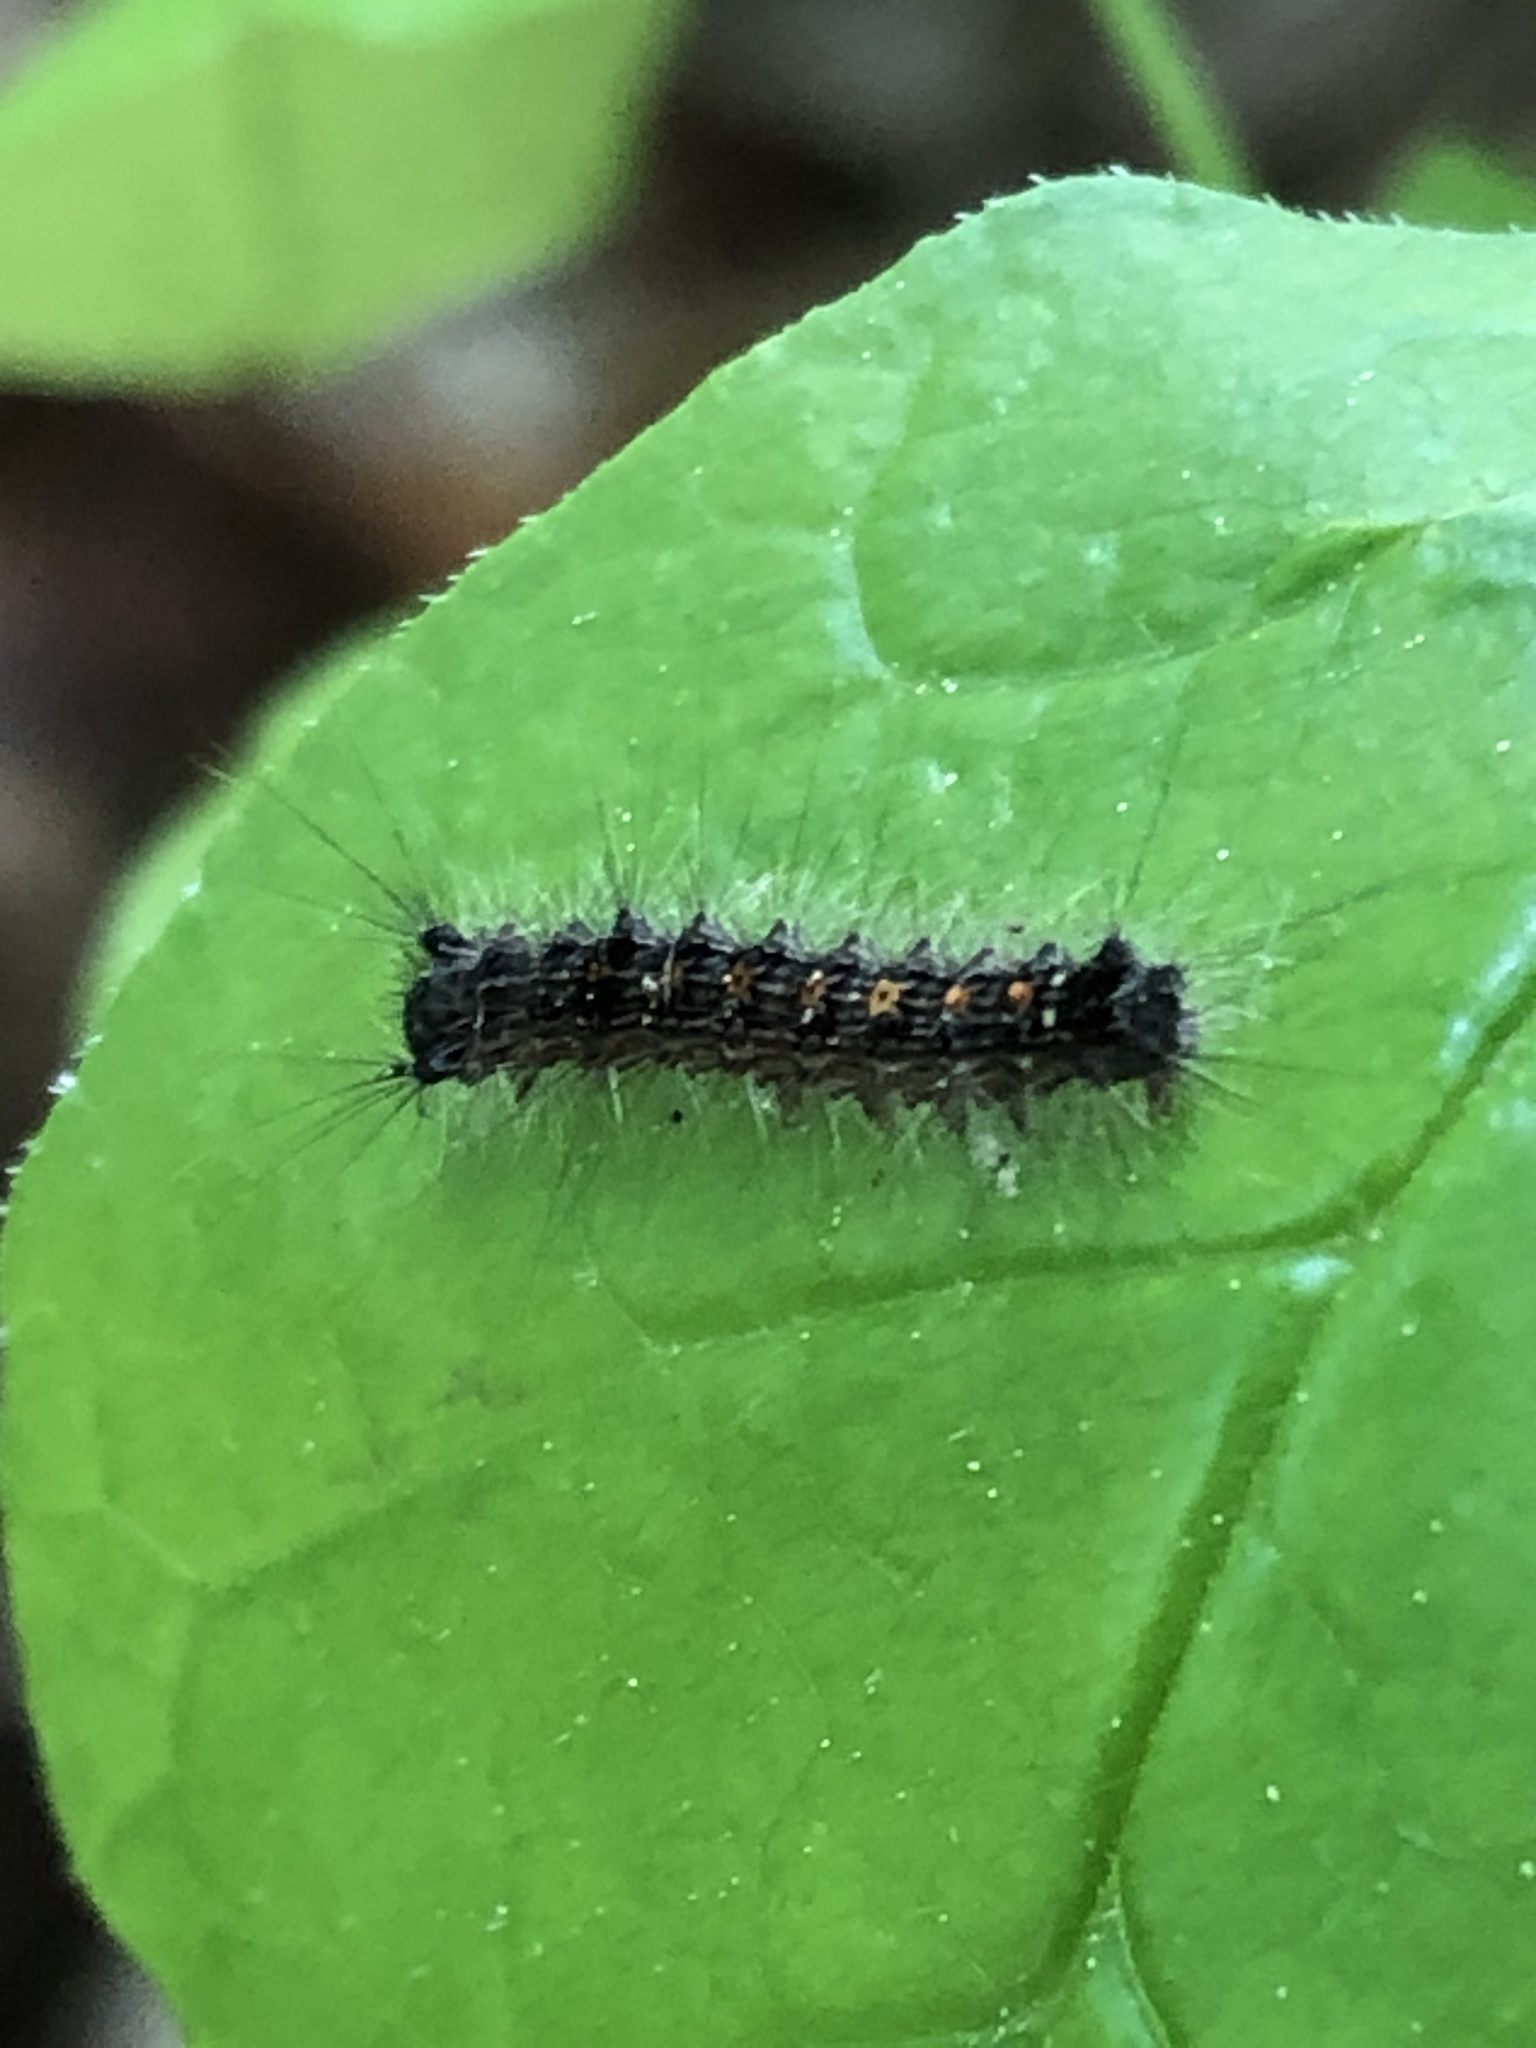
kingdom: Animalia
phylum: Arthropoda
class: Insecta
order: Lepidoptera
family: Erebidae
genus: Lymantria
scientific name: Lymantria dispar
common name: Gypsy moth
